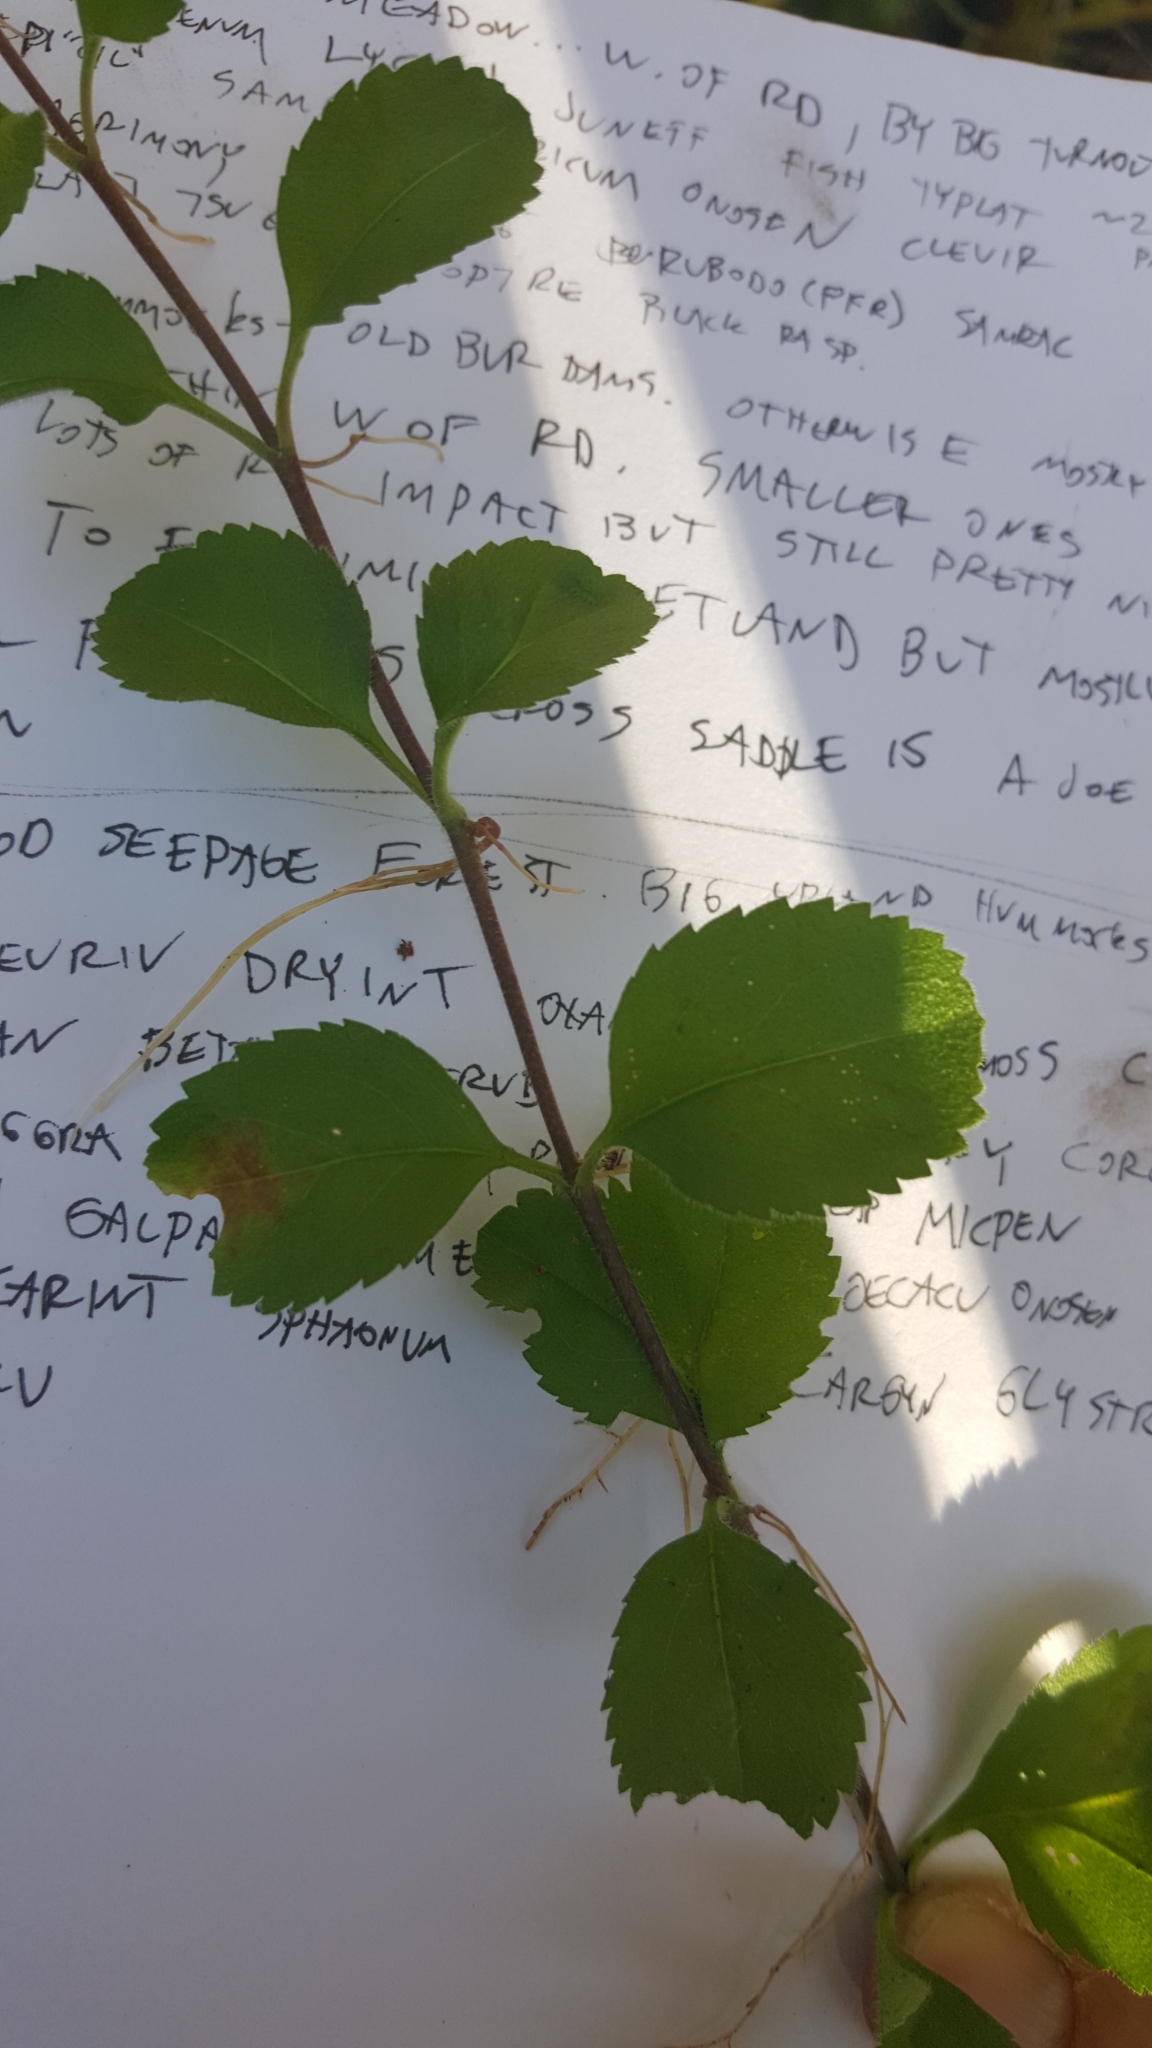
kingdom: Plantae
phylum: Tracheophyta
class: Magnoliopsida
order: Lamiales
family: Plantaginaceae
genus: Veronica
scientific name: Veronica officinalis
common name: Common speedwell
